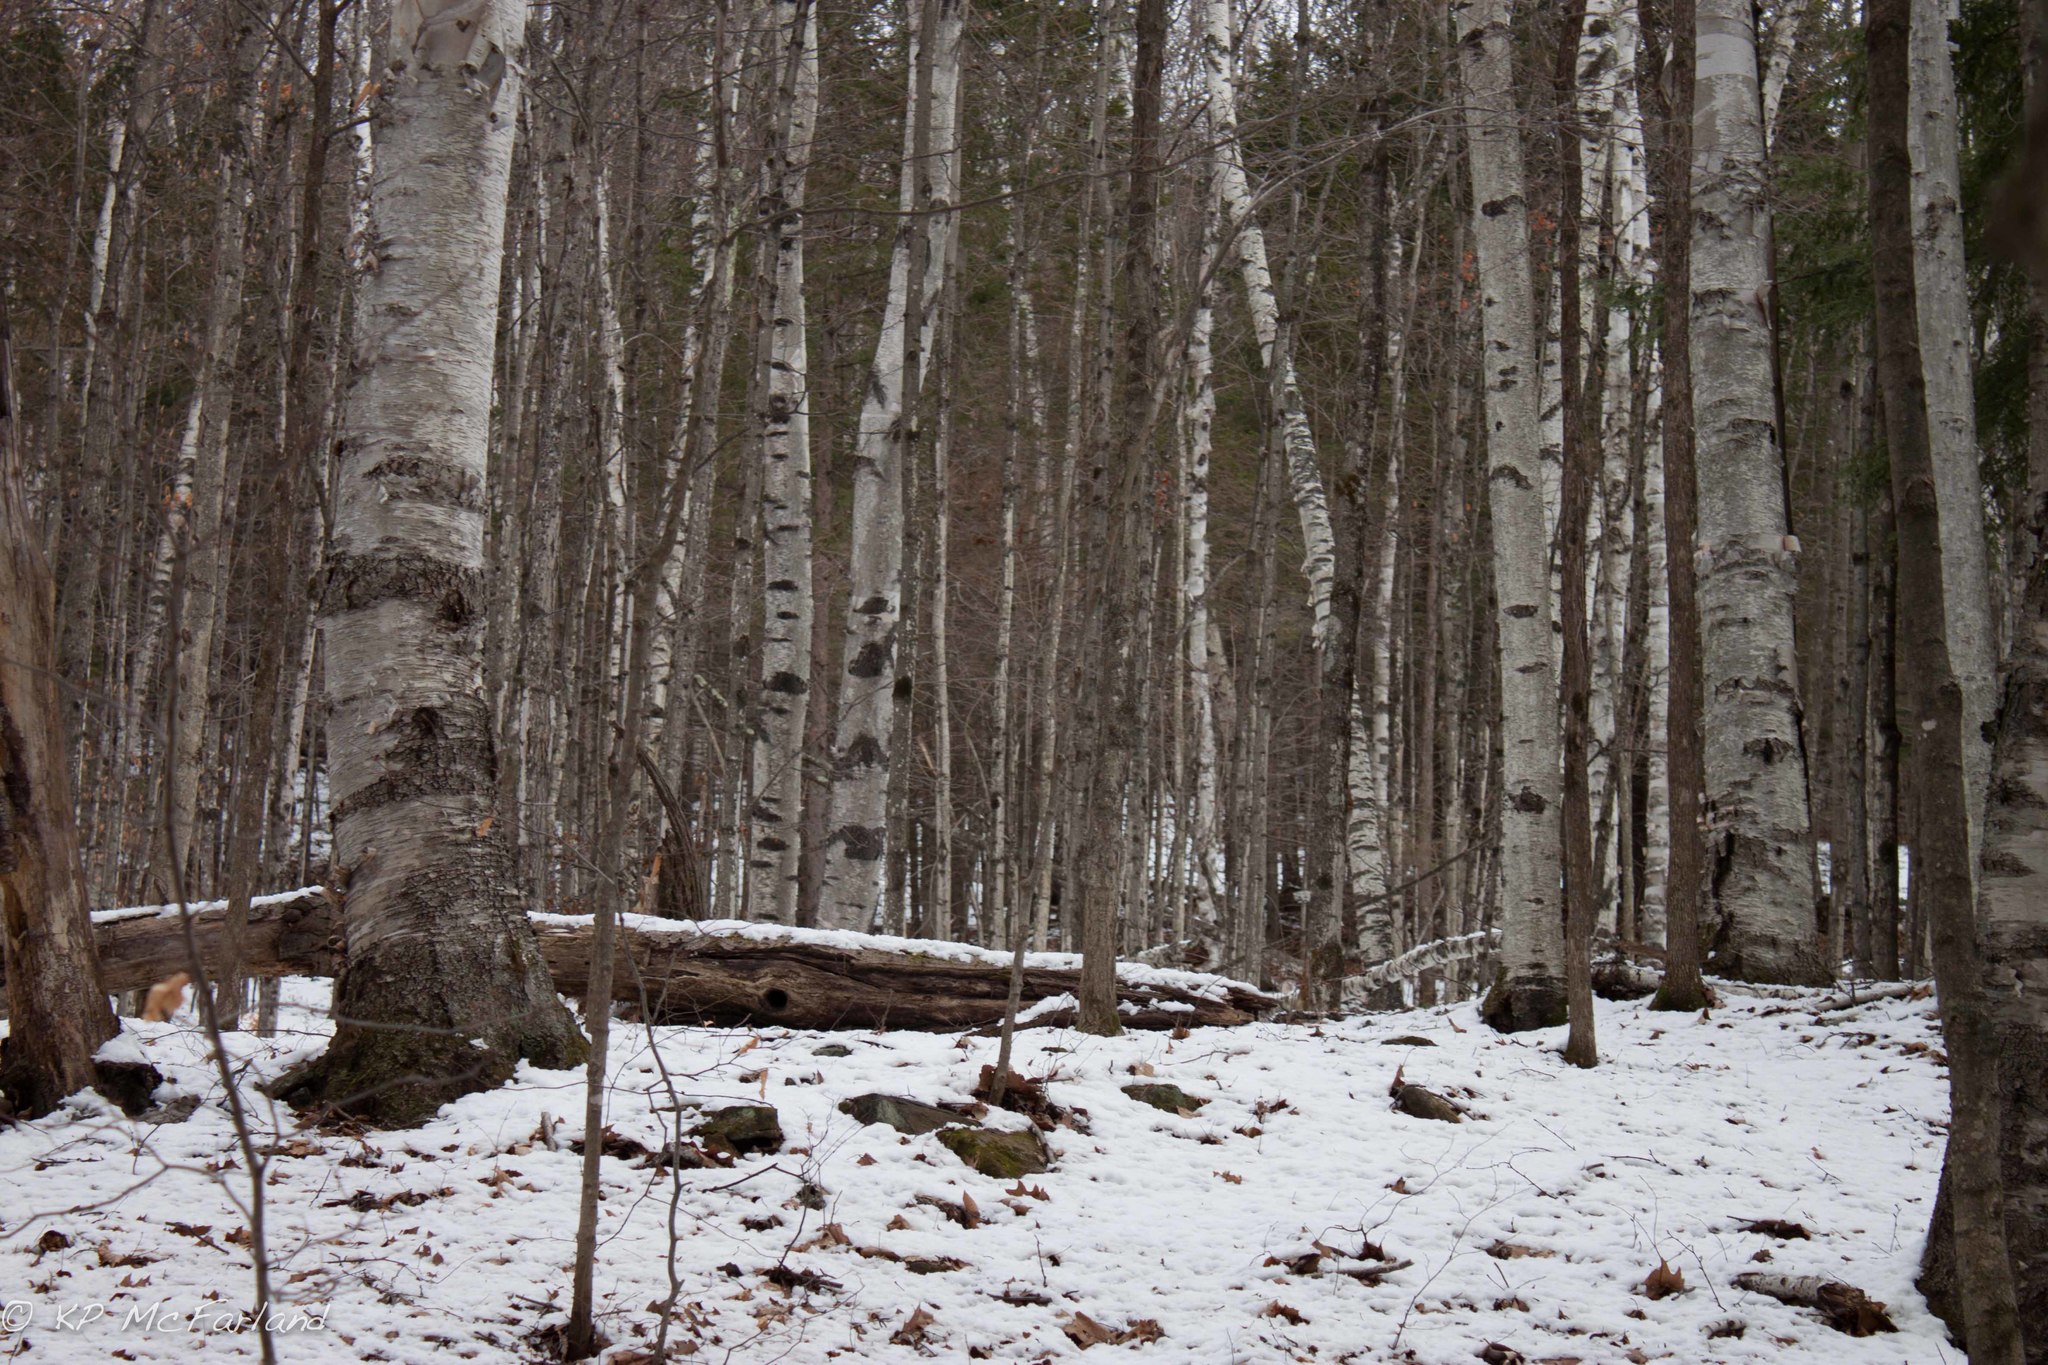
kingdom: Plantae
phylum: Tracheophyta
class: Magnoliopsida
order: Fagales
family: Betulaceae
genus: Betula
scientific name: Betula papyrifera
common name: Paper birch
